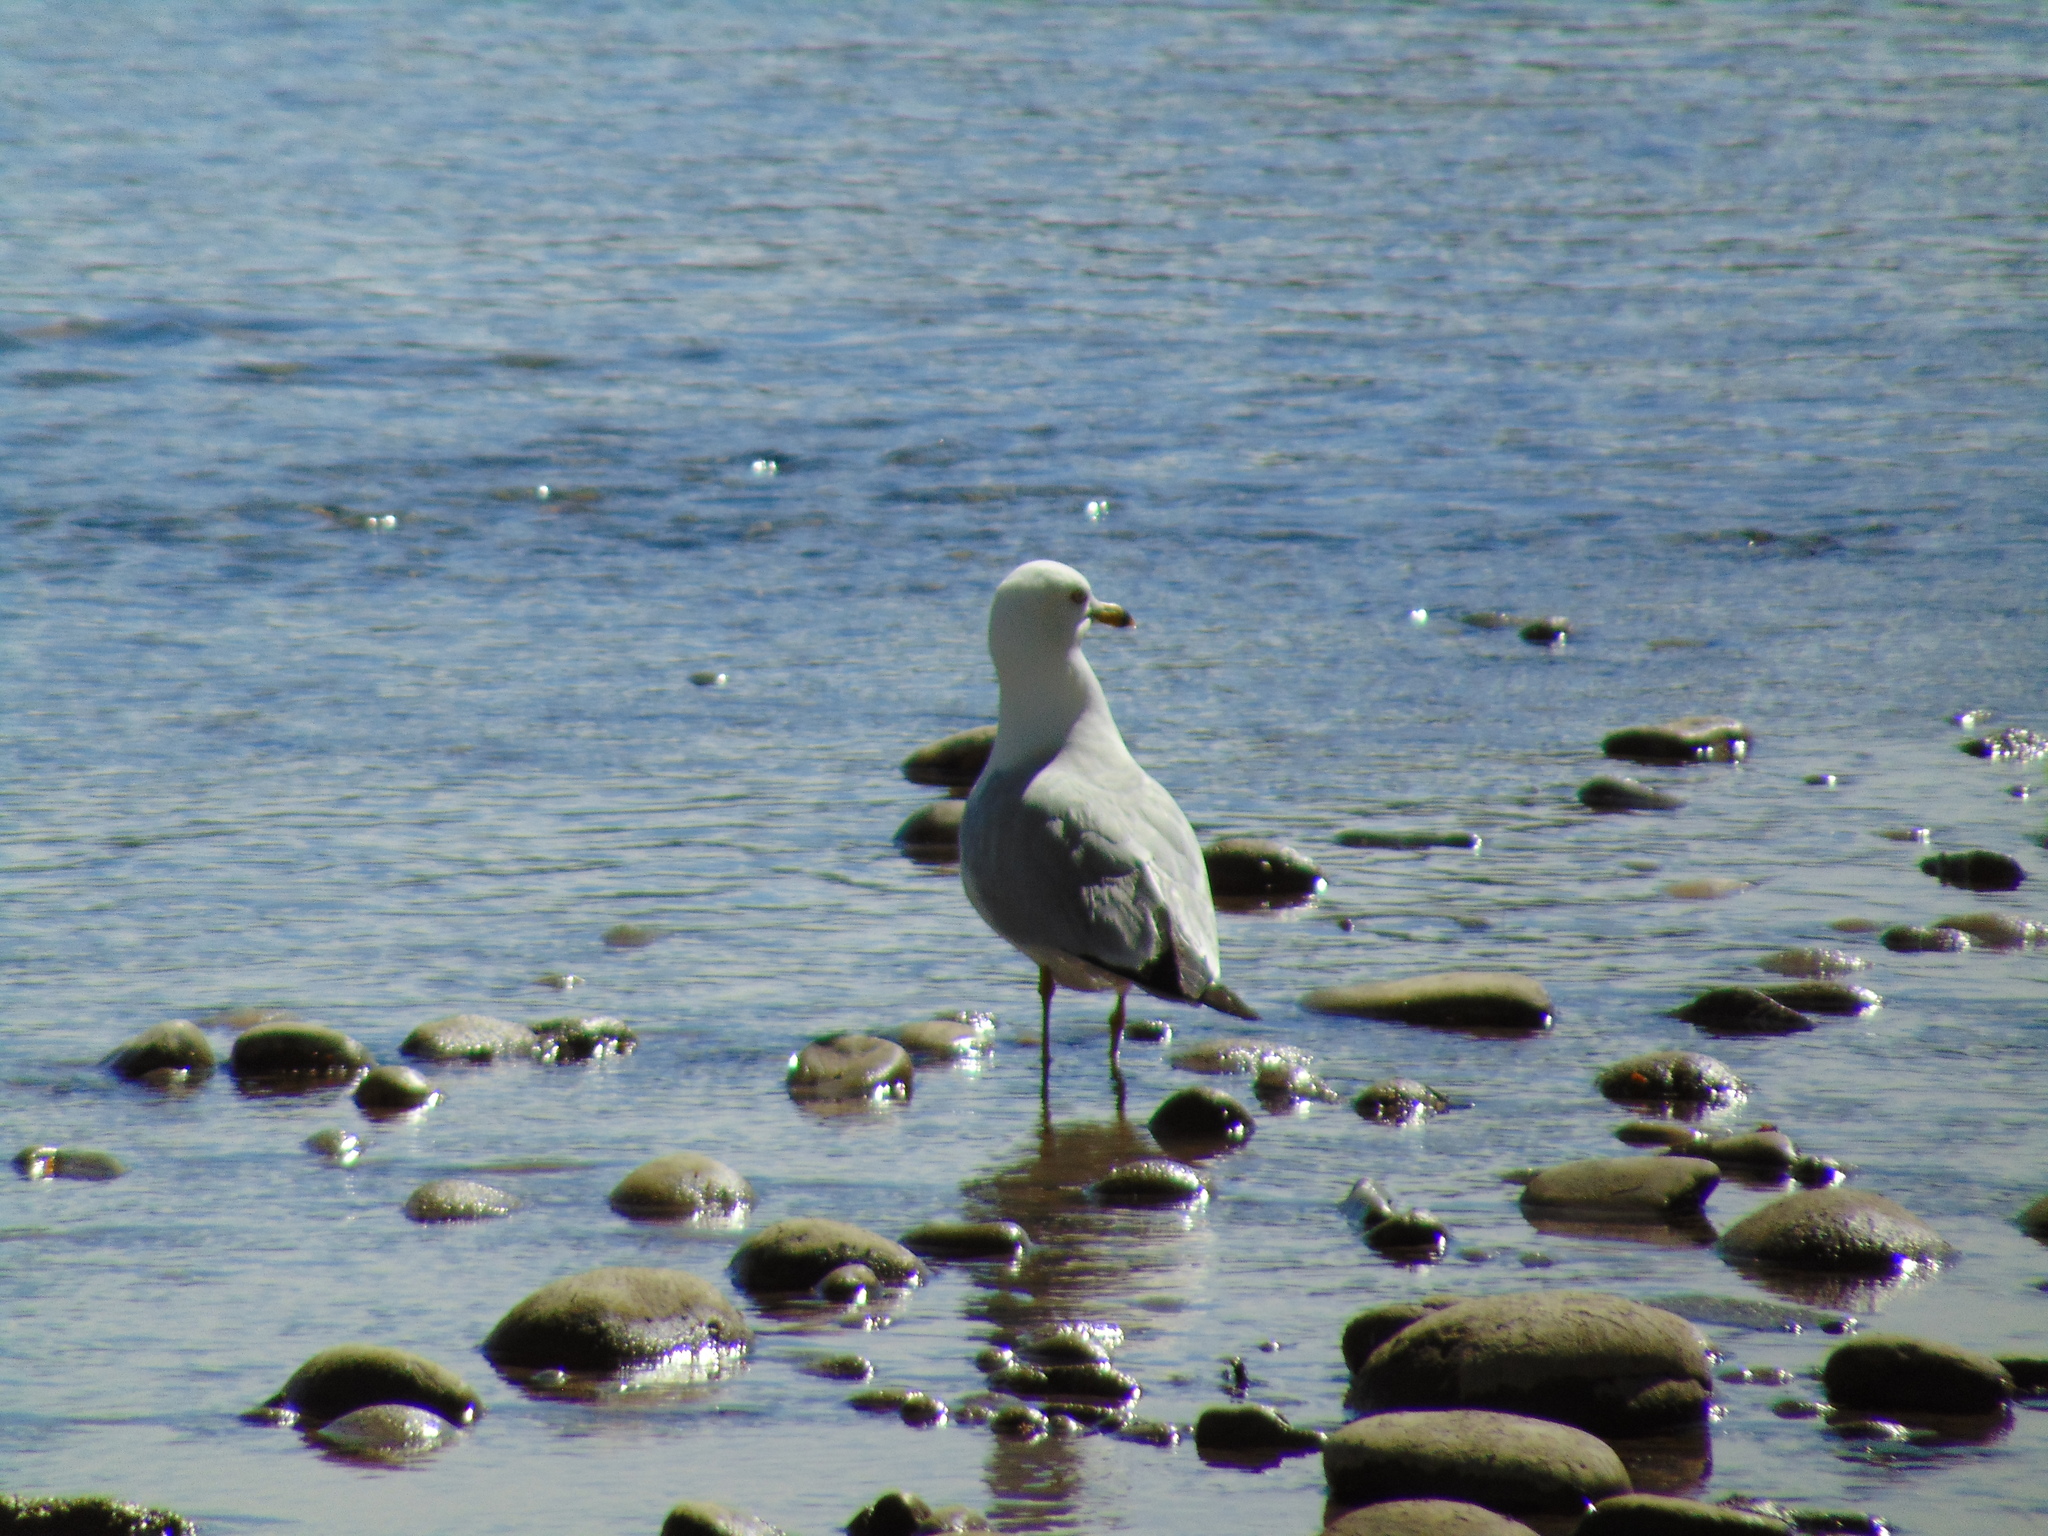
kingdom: Animalia
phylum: Chordata
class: Aves
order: Charadriiformes
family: Laridae
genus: Larus
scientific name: Larus delawarensis
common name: Ring-billed gull
